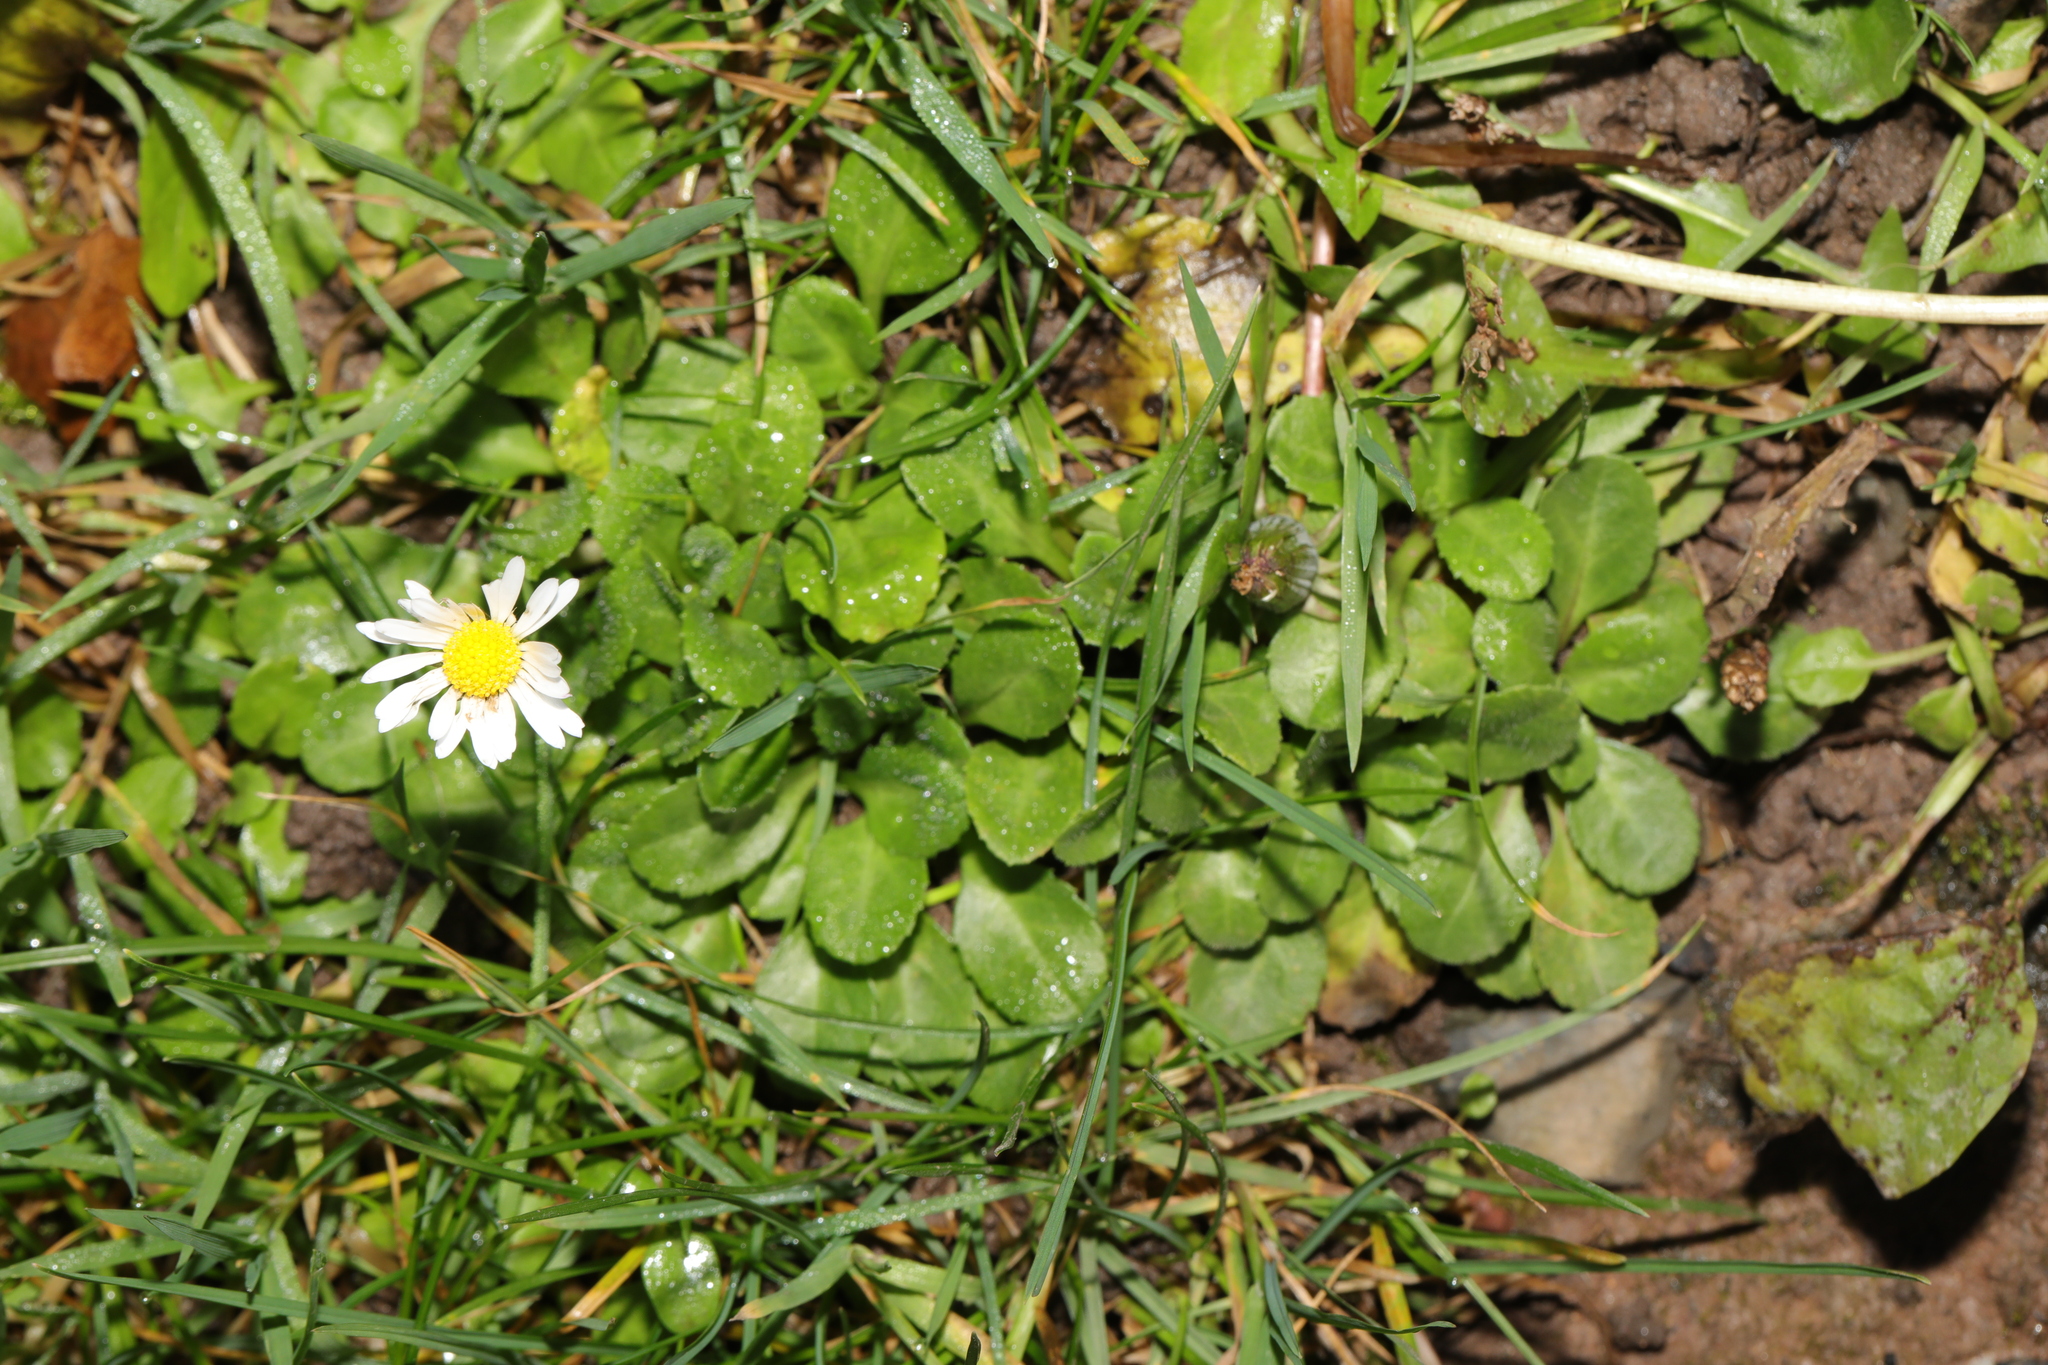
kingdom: Plantae
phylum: Tracheophyta
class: Magnoliopsida
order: Asterales
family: Asteraceae
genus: Bellis
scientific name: Bellis perennis
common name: Lawndaisy
